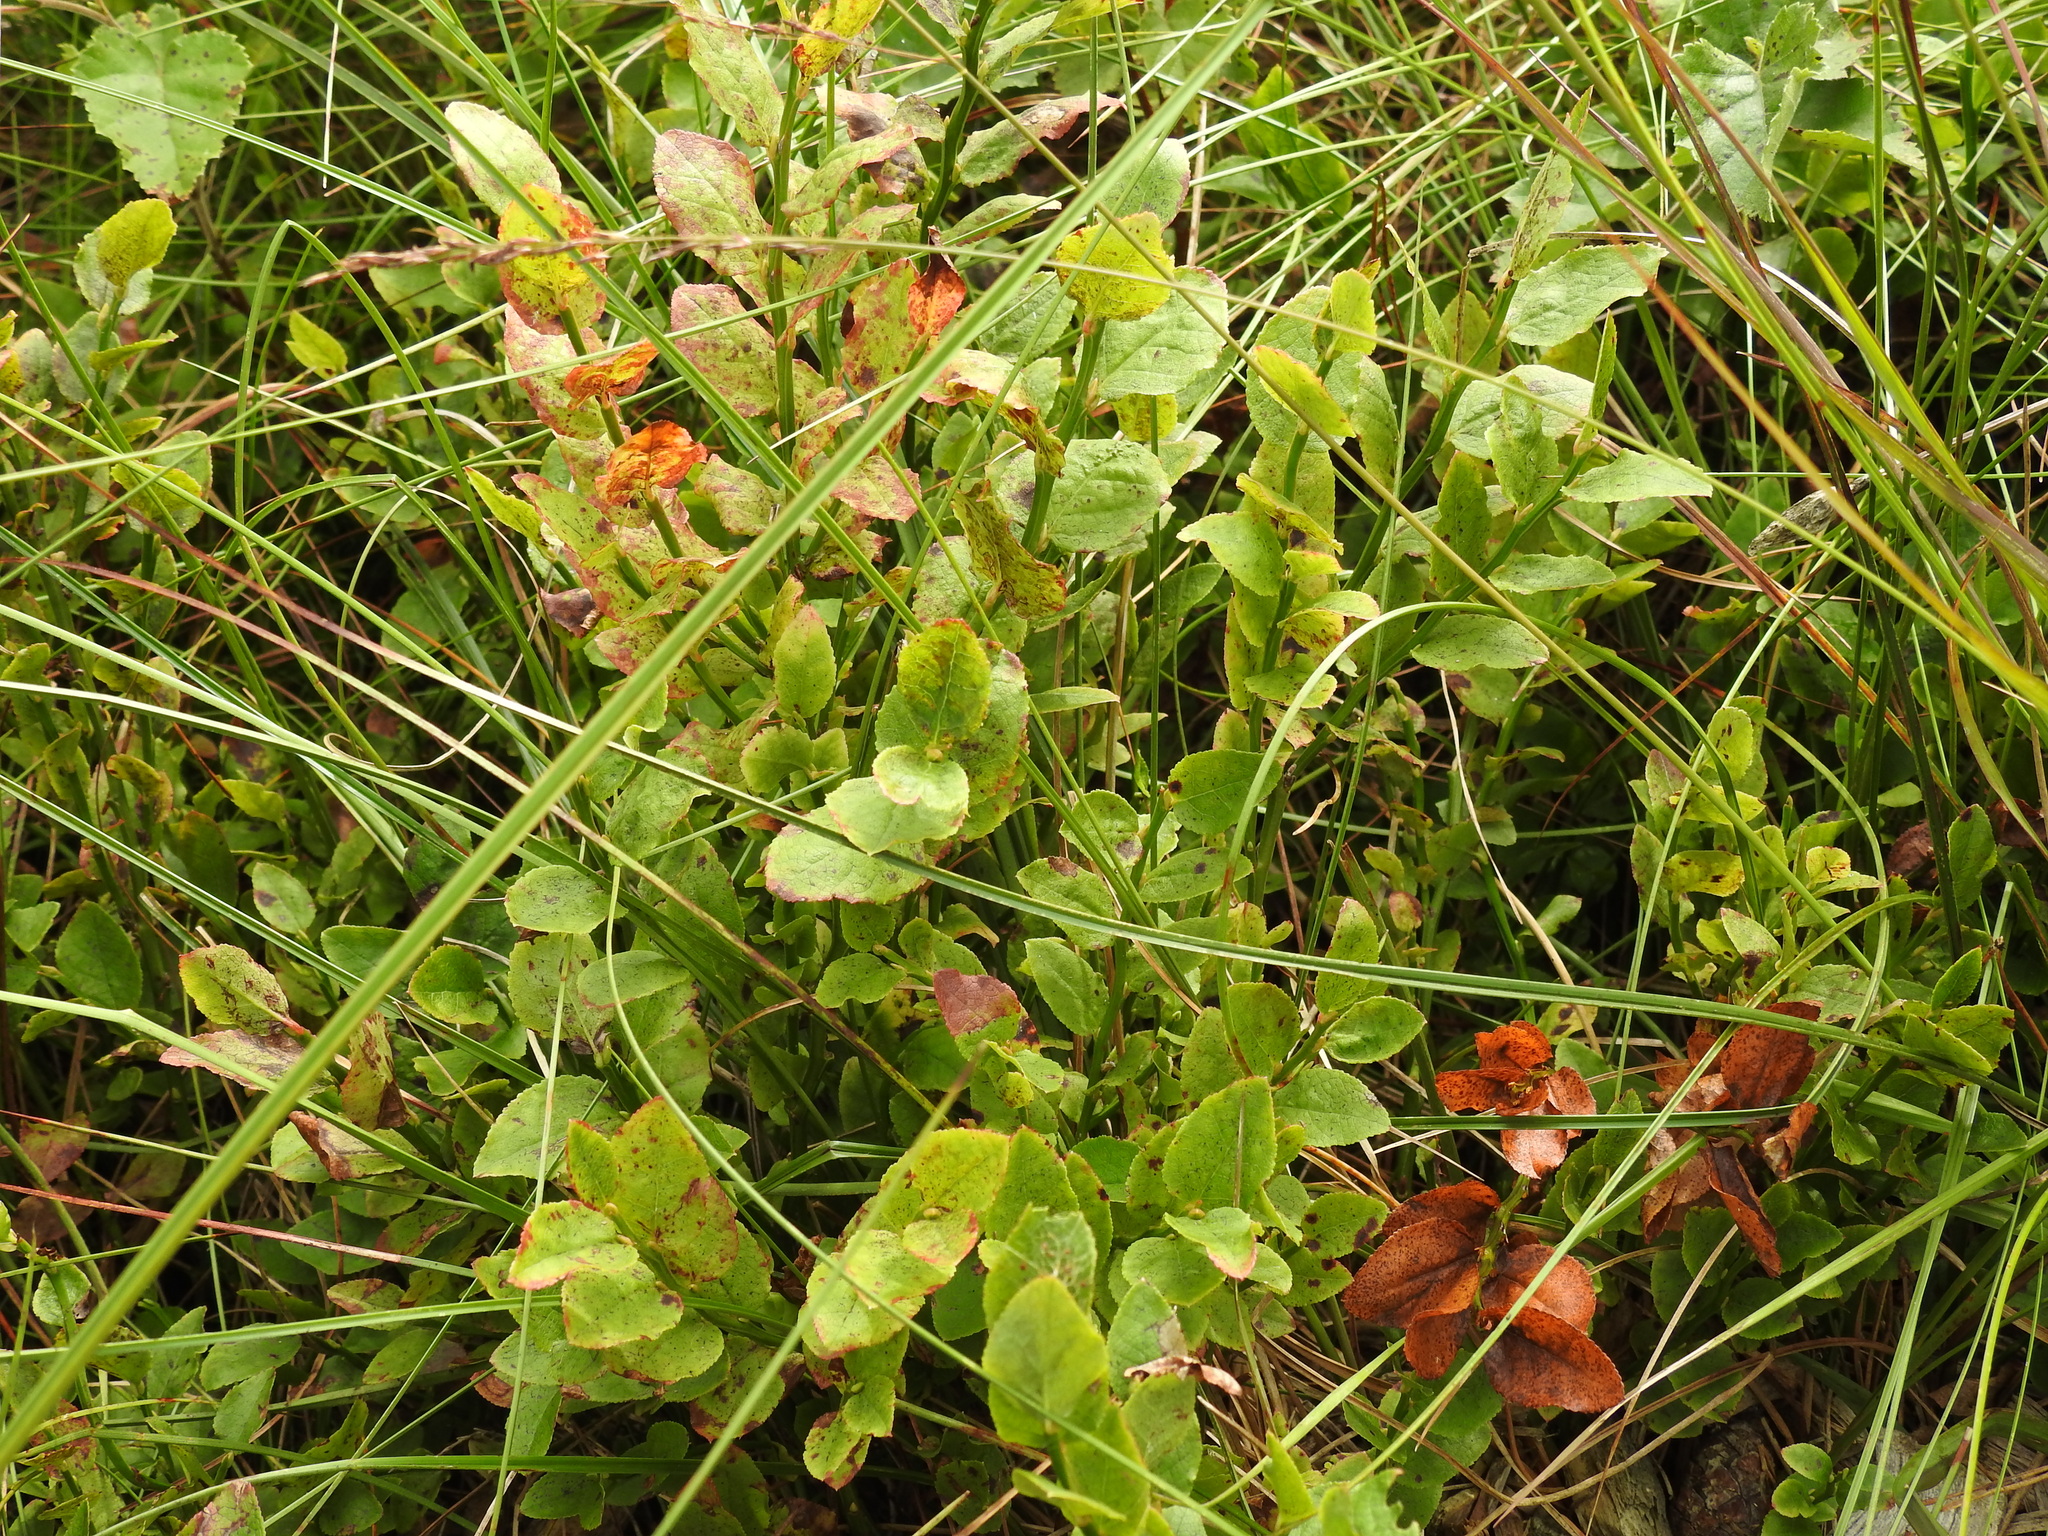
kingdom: Plantae
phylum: Tracheophyta
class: Magnoliopsida
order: Ericales
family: Ericaceae
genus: Vaccinium
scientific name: Vaccinium myrtillus
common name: Bilberry
